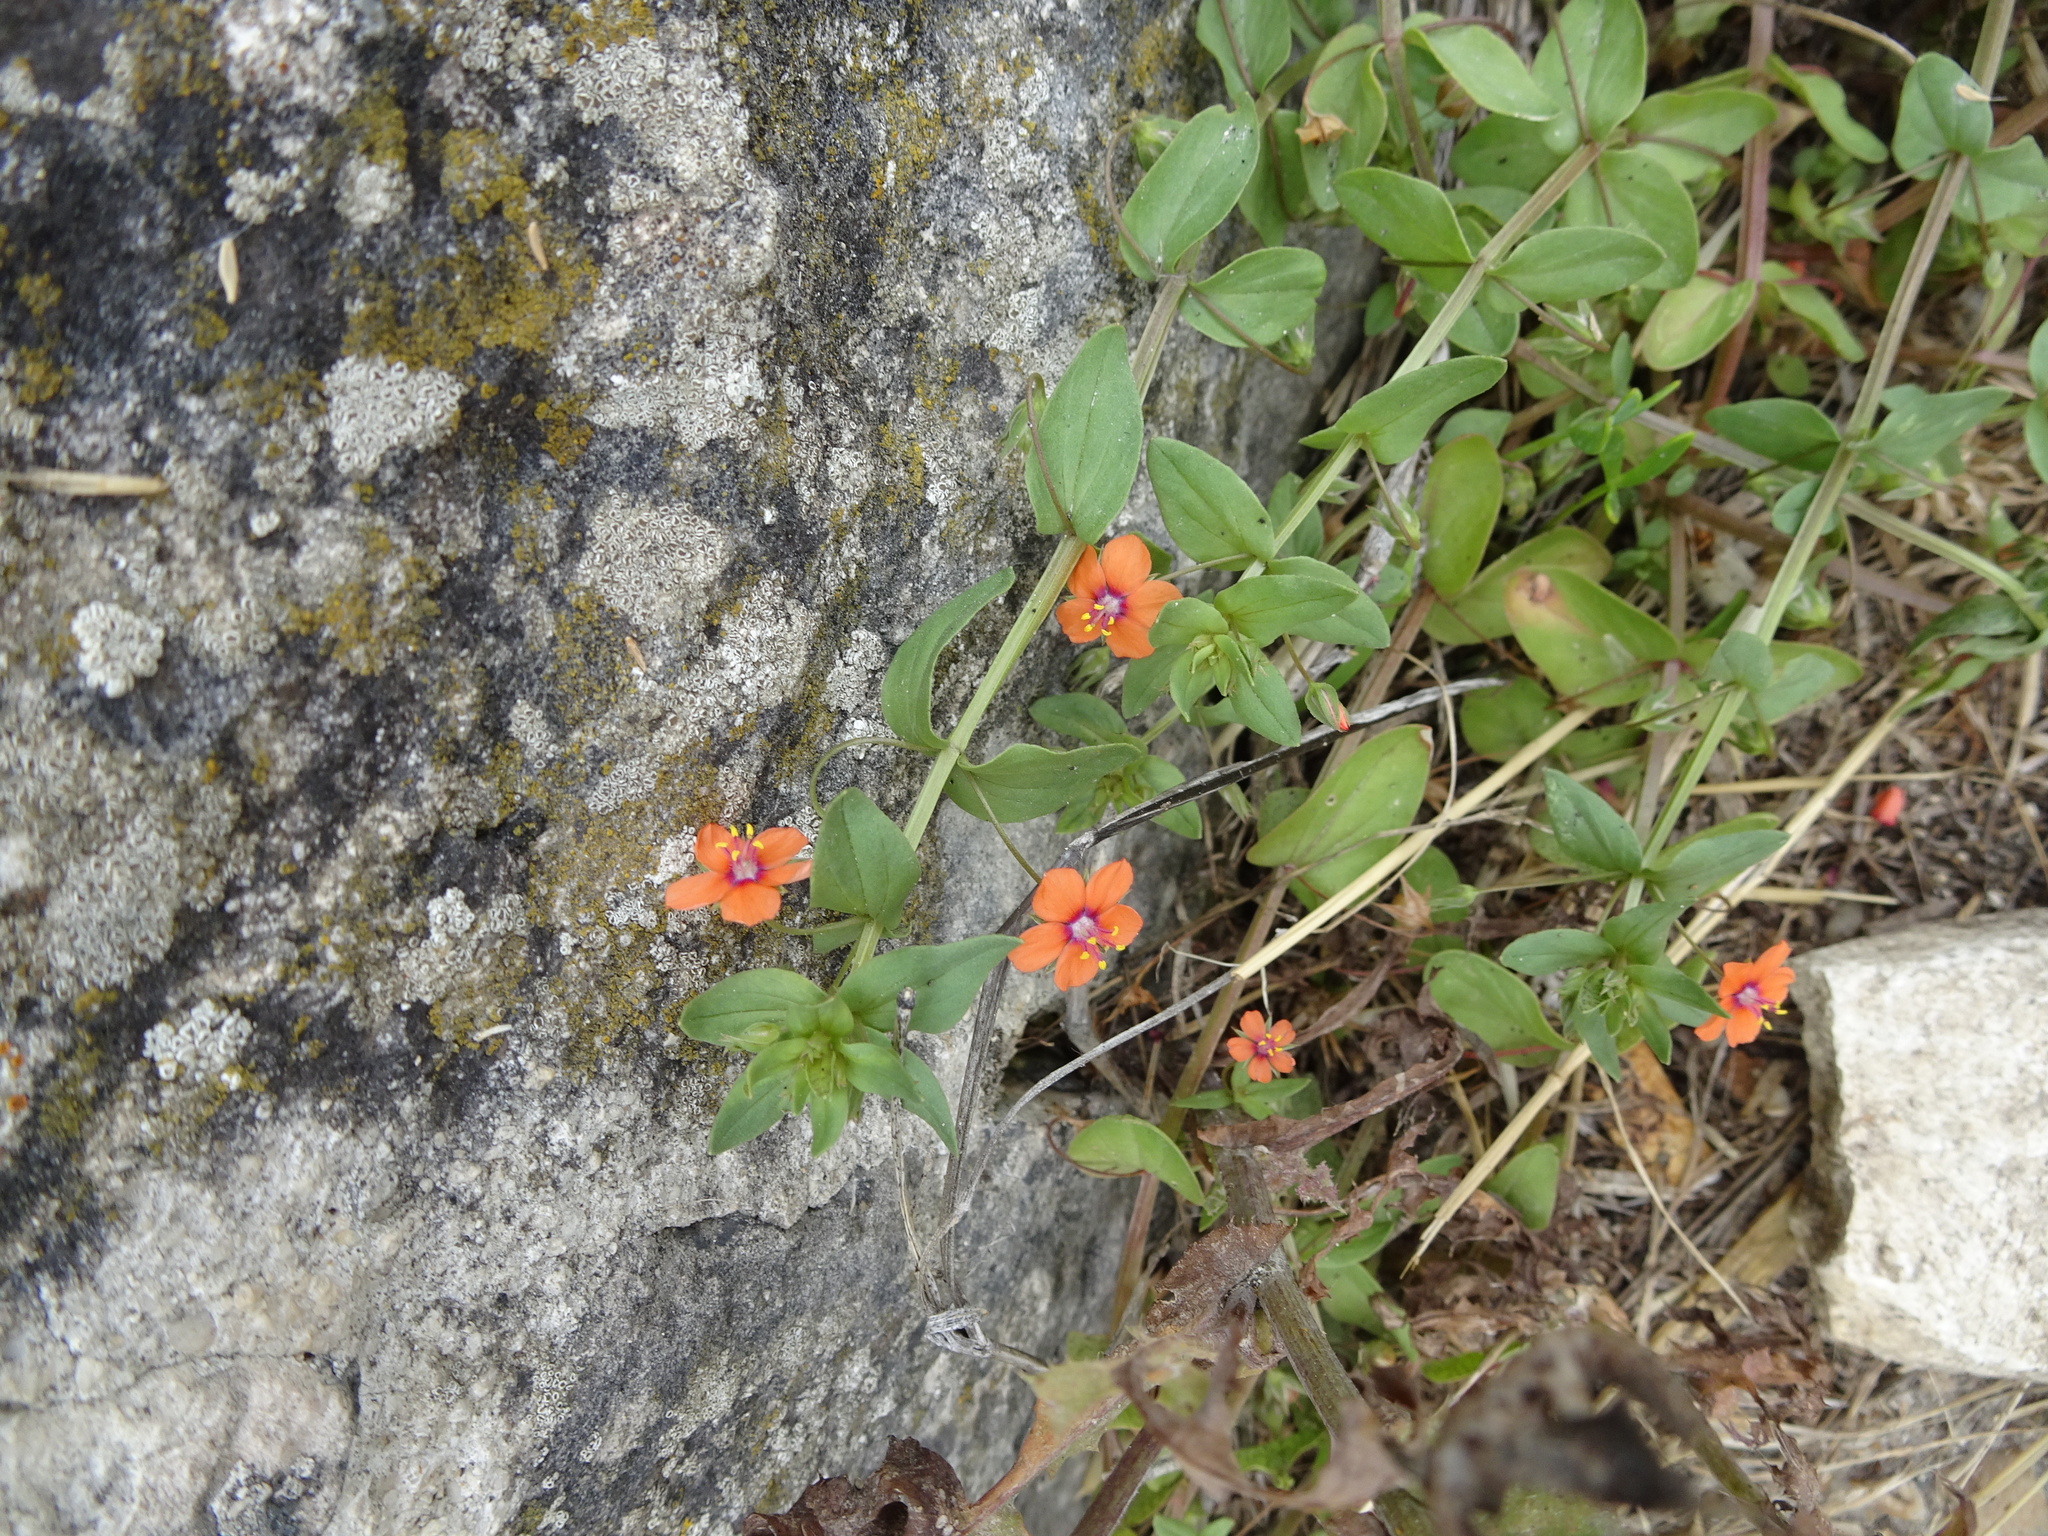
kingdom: Plantae
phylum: Tracheophyta
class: Magnoliopsida
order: Ericales
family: Primulaceae
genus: Lysimachia
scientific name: Lysimachia arvensis
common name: Scarlet pimpernel
